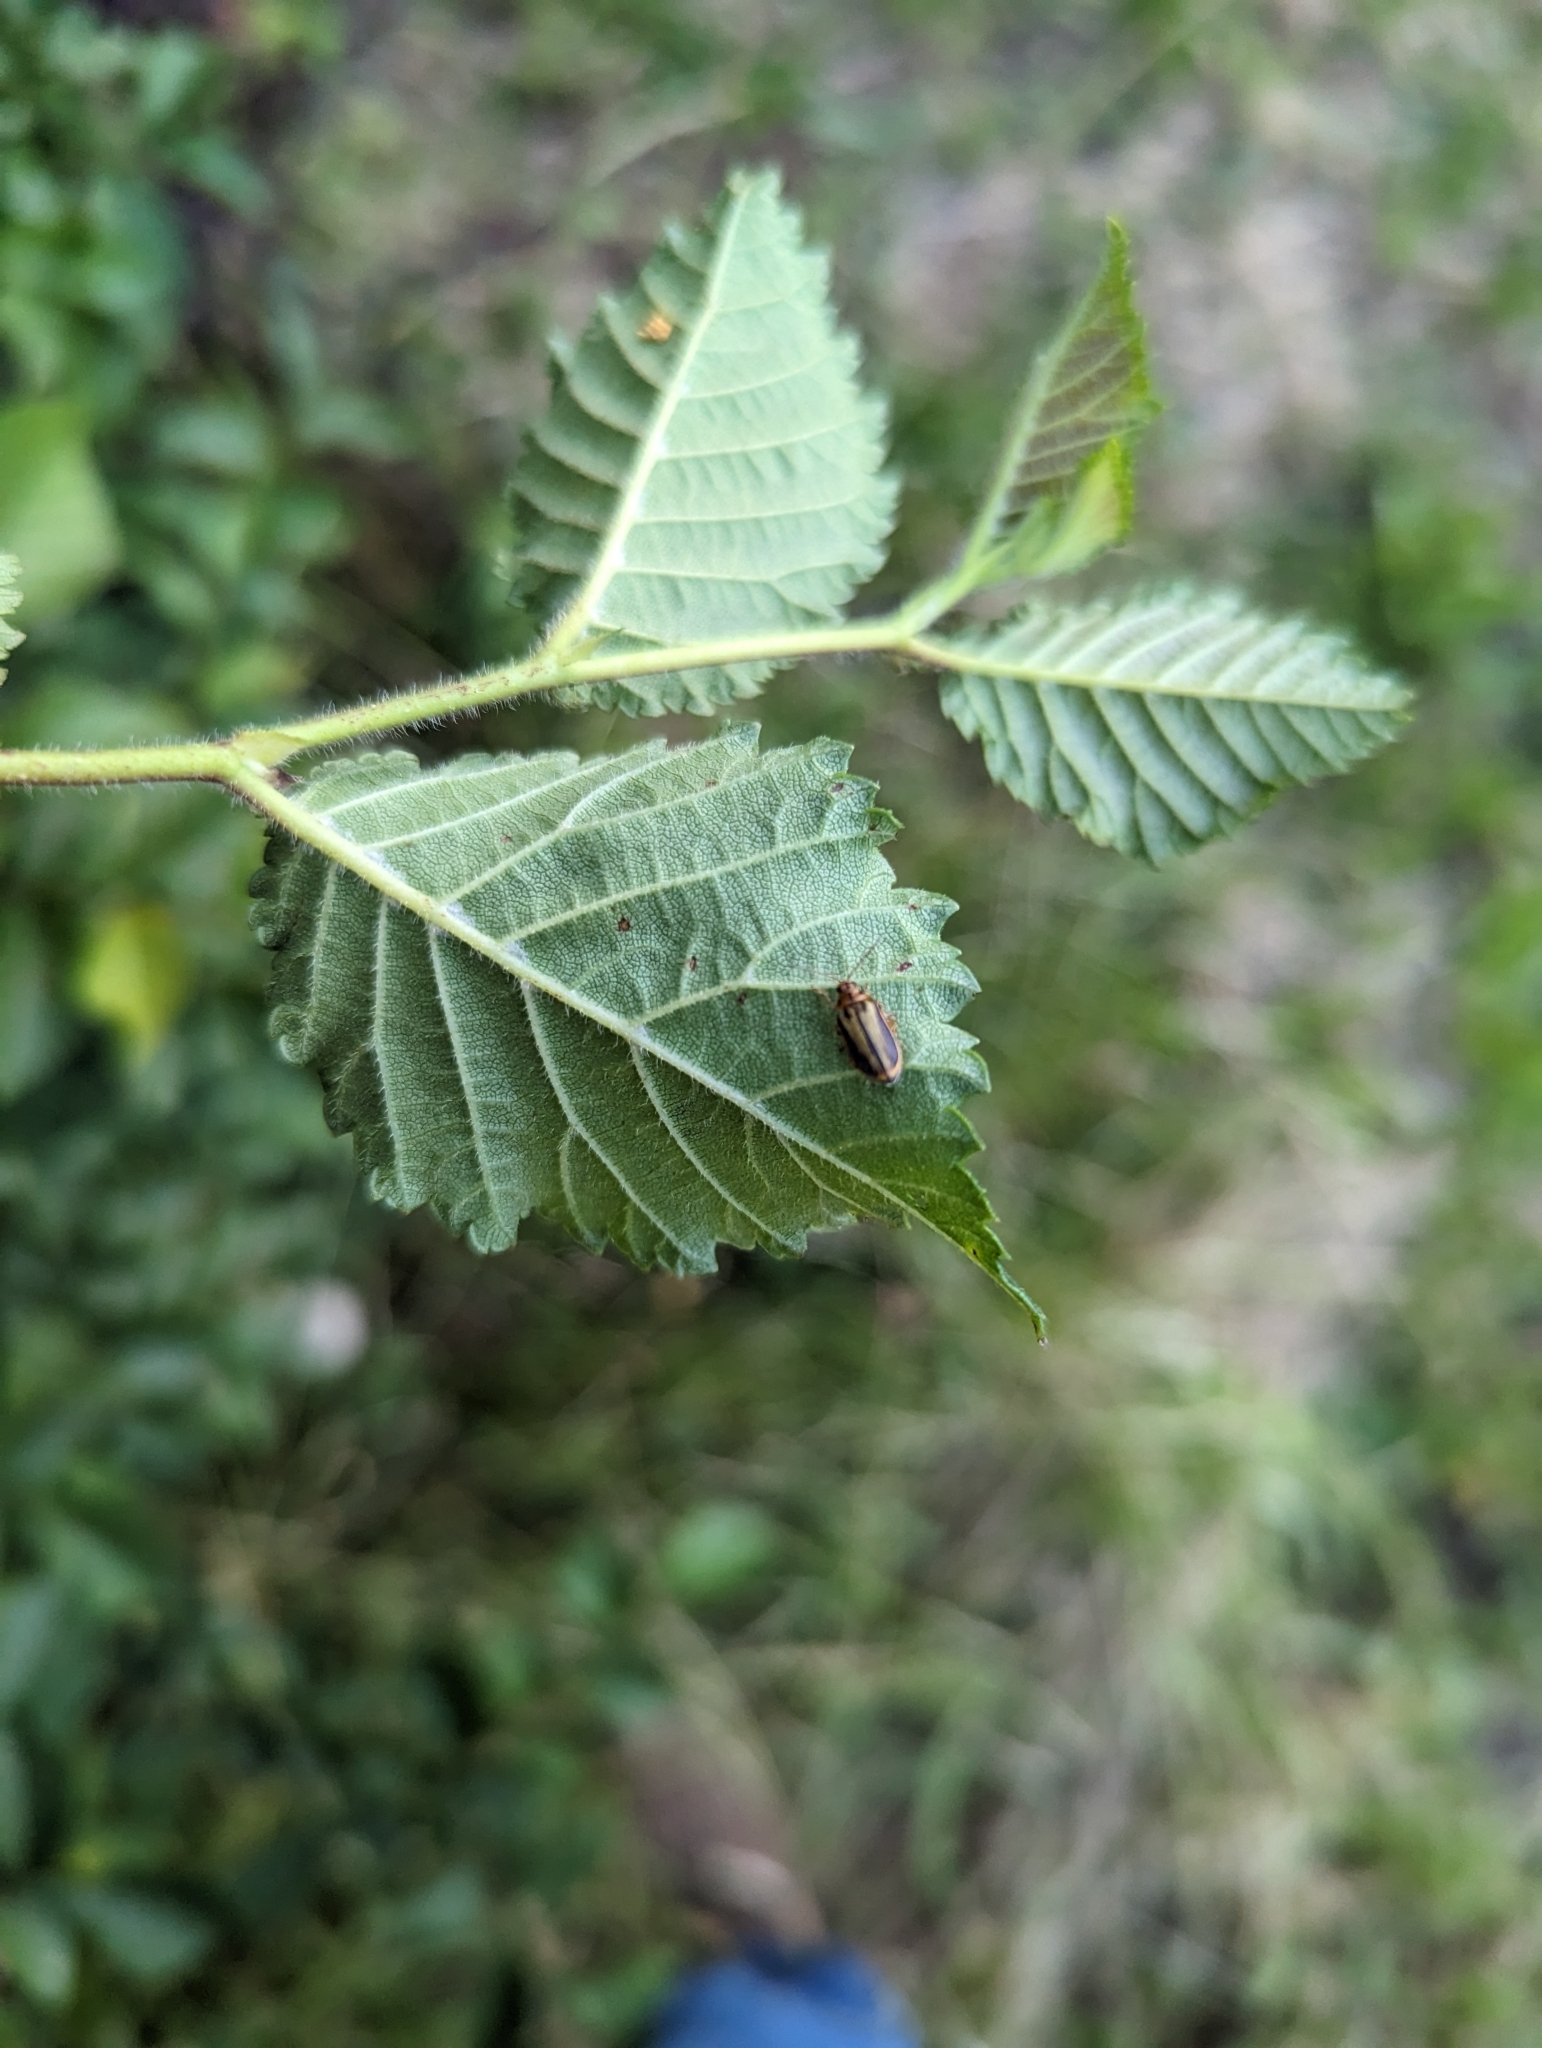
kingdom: Animalia
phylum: Arthropoda
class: Insecta
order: Coleoptera
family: Chrysomelidae
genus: Xanthogaleruca
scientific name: Xanthogaleruca luteola
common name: Elm leaf beetle
